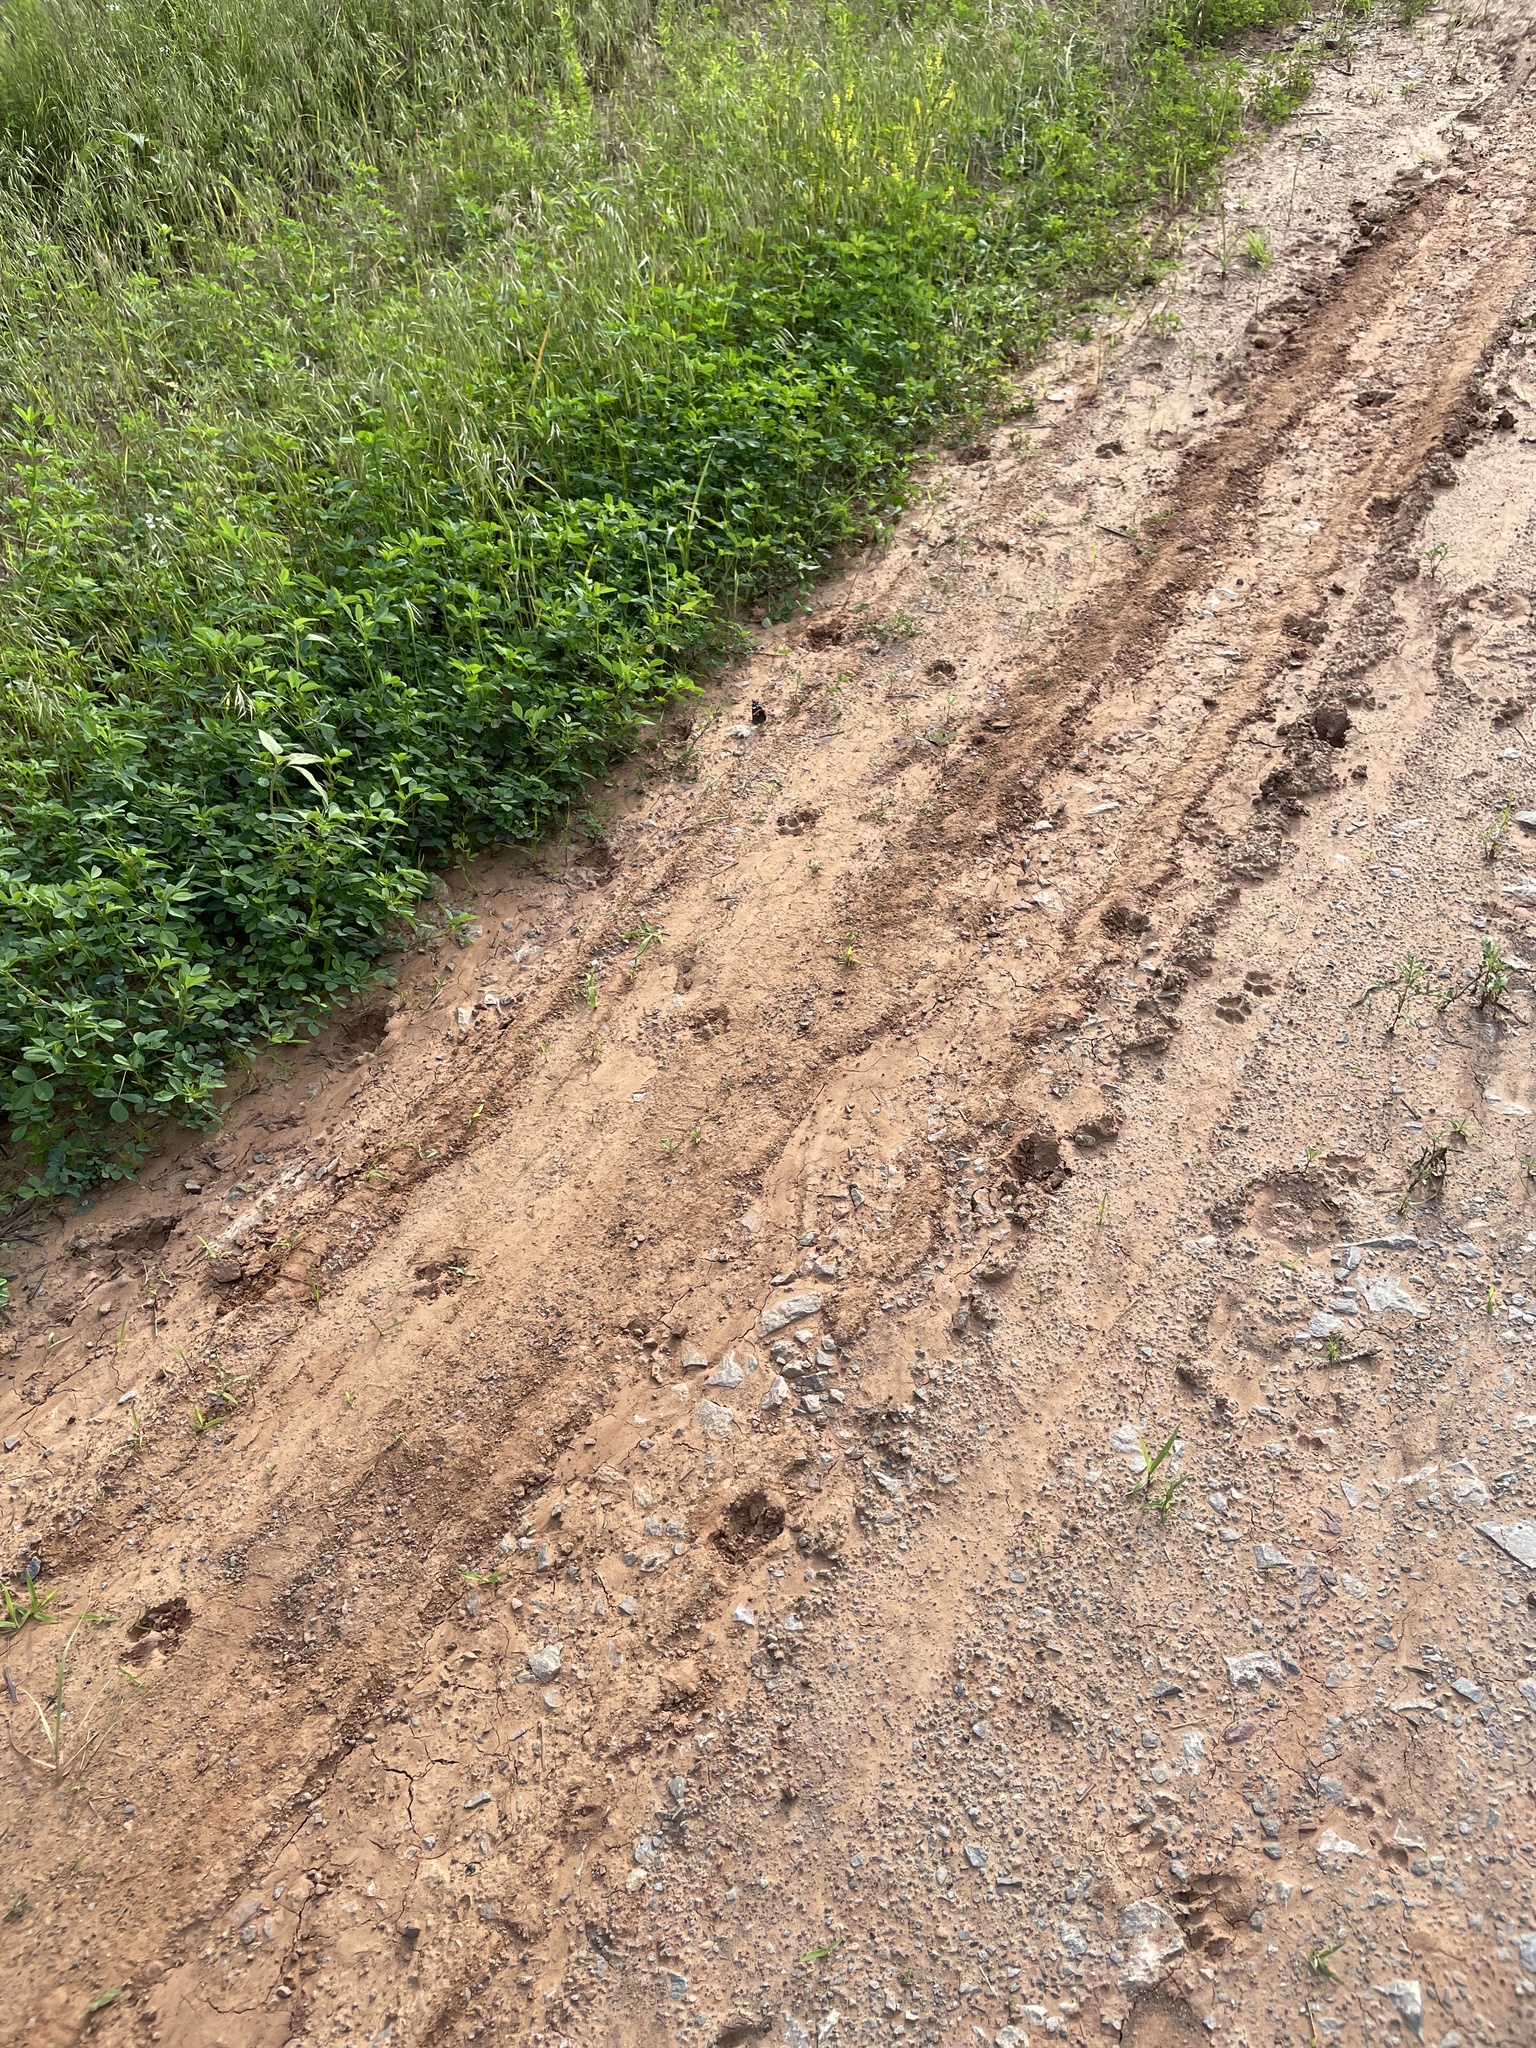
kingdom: Animalia
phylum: Arthropoda
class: Insecta
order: Lepidoptera
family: Nymphalidae
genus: Vanessa
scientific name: Vanessa atalanta
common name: Red admiral
